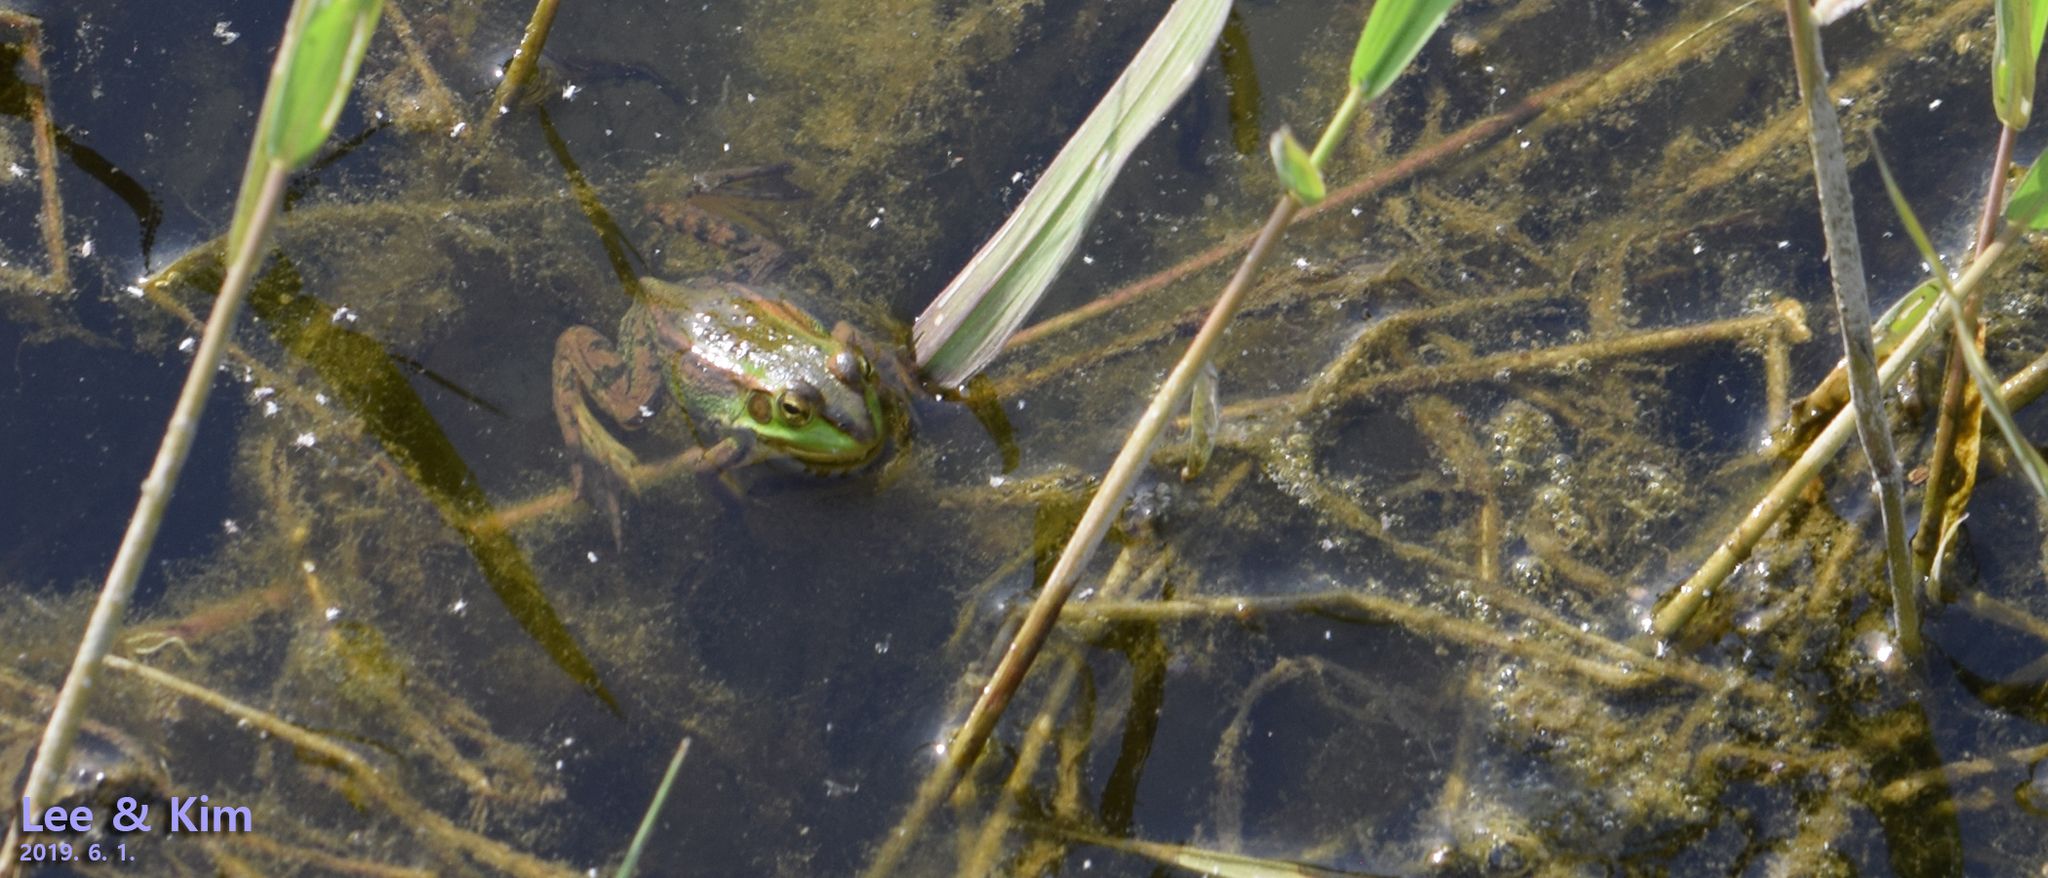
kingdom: Animalia
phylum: Chordata
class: Amphibia
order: Anura
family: Ranidae
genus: Pelophylax
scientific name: Pelophylax chosenicus
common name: Gold-spotted pond frog
